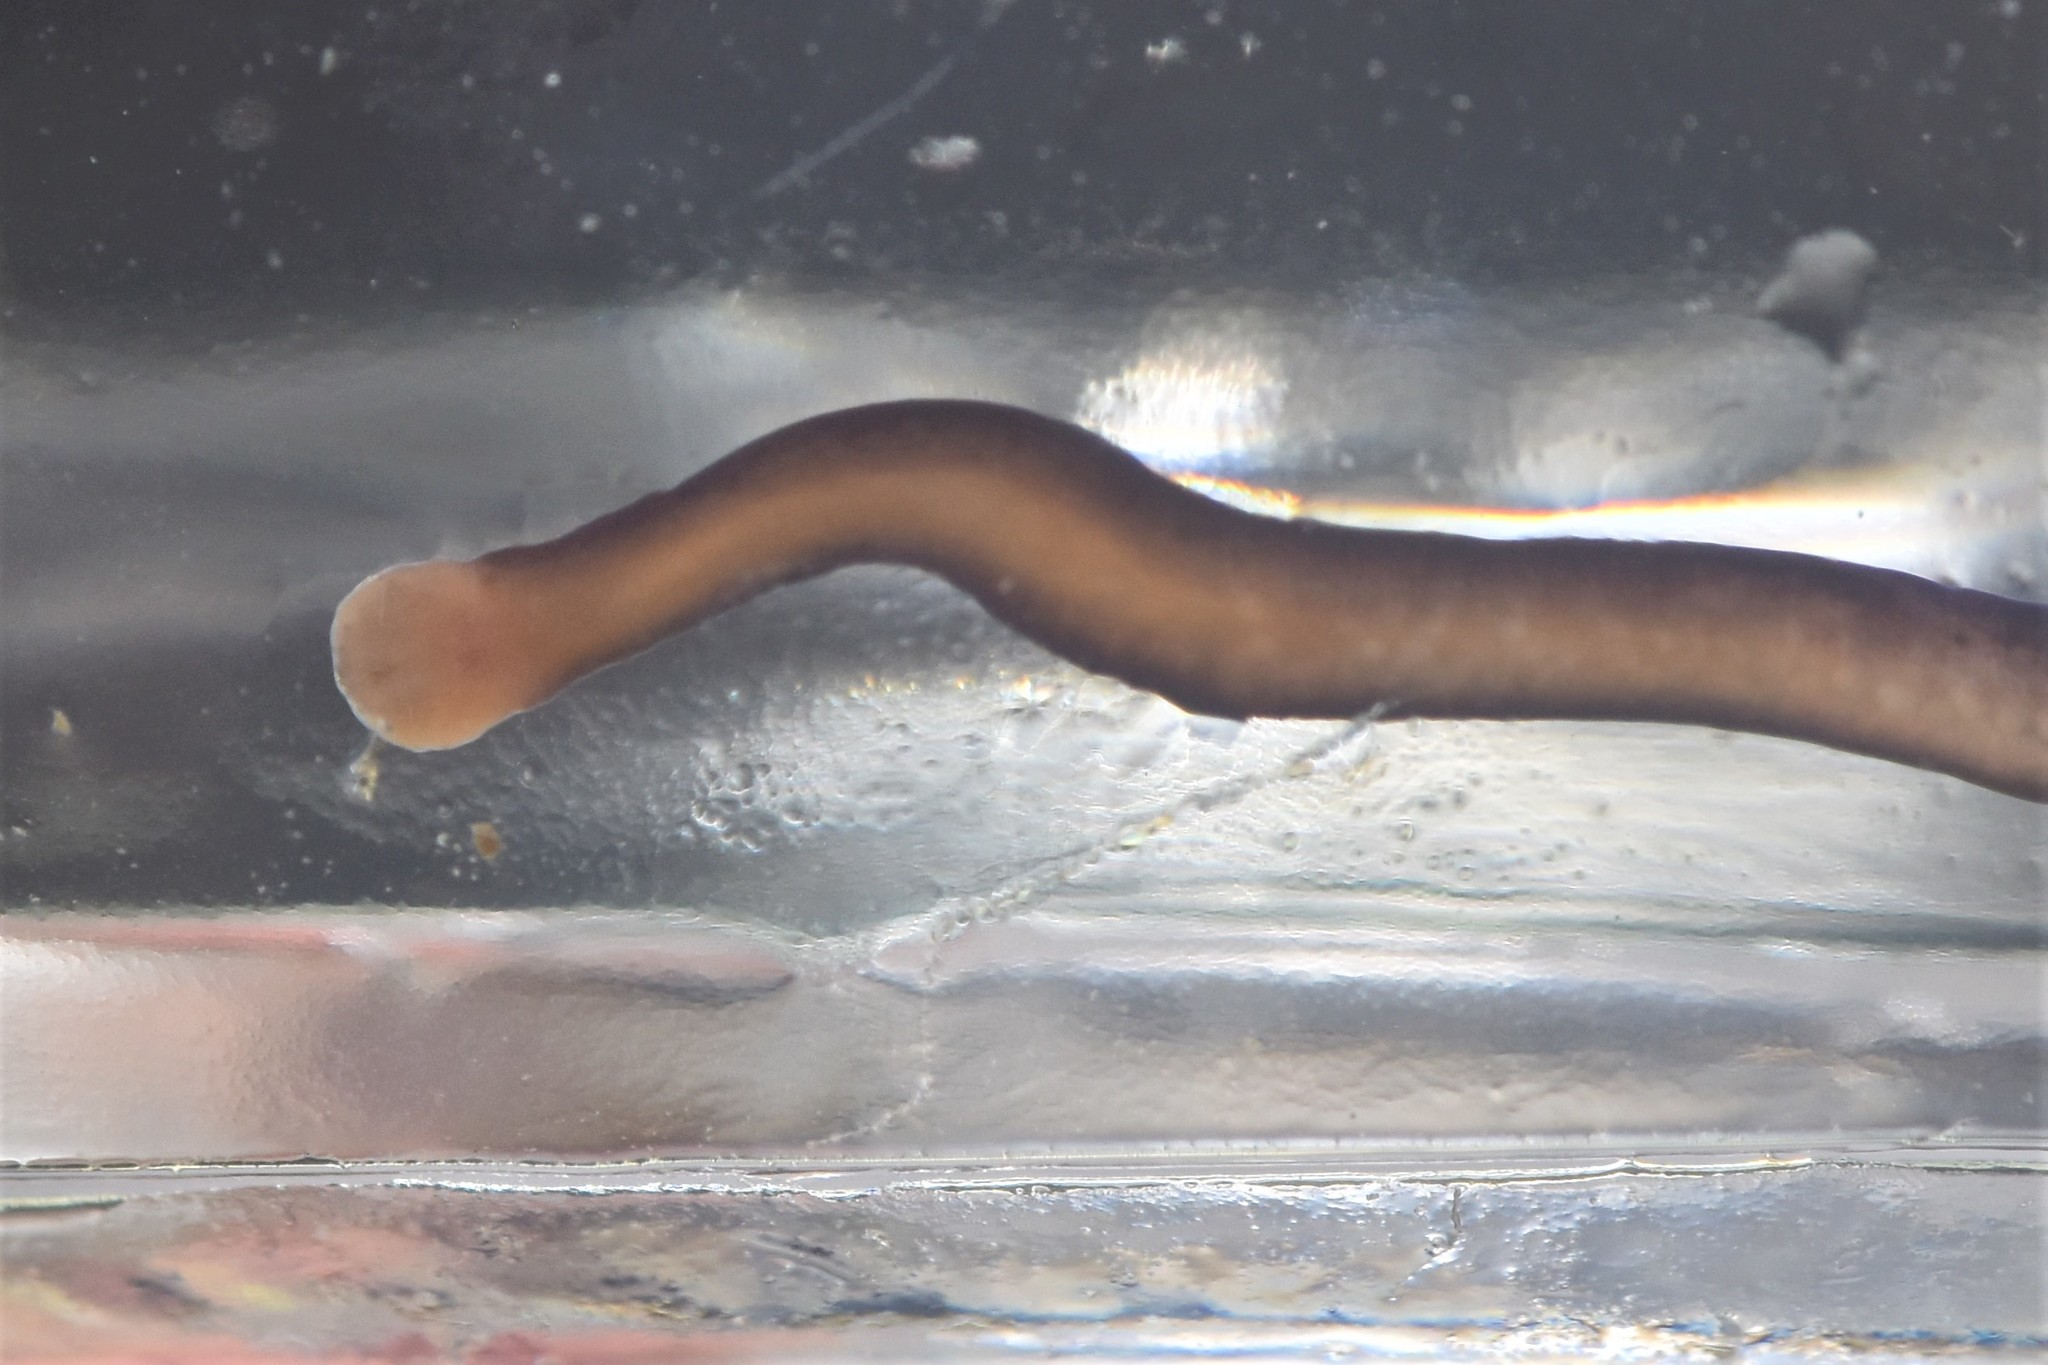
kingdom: Animalia
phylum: Nemertea
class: Hoplonemertea
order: Monostilifera
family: Neesiidae
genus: Paranemertes
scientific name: Paranemertes peregrina
